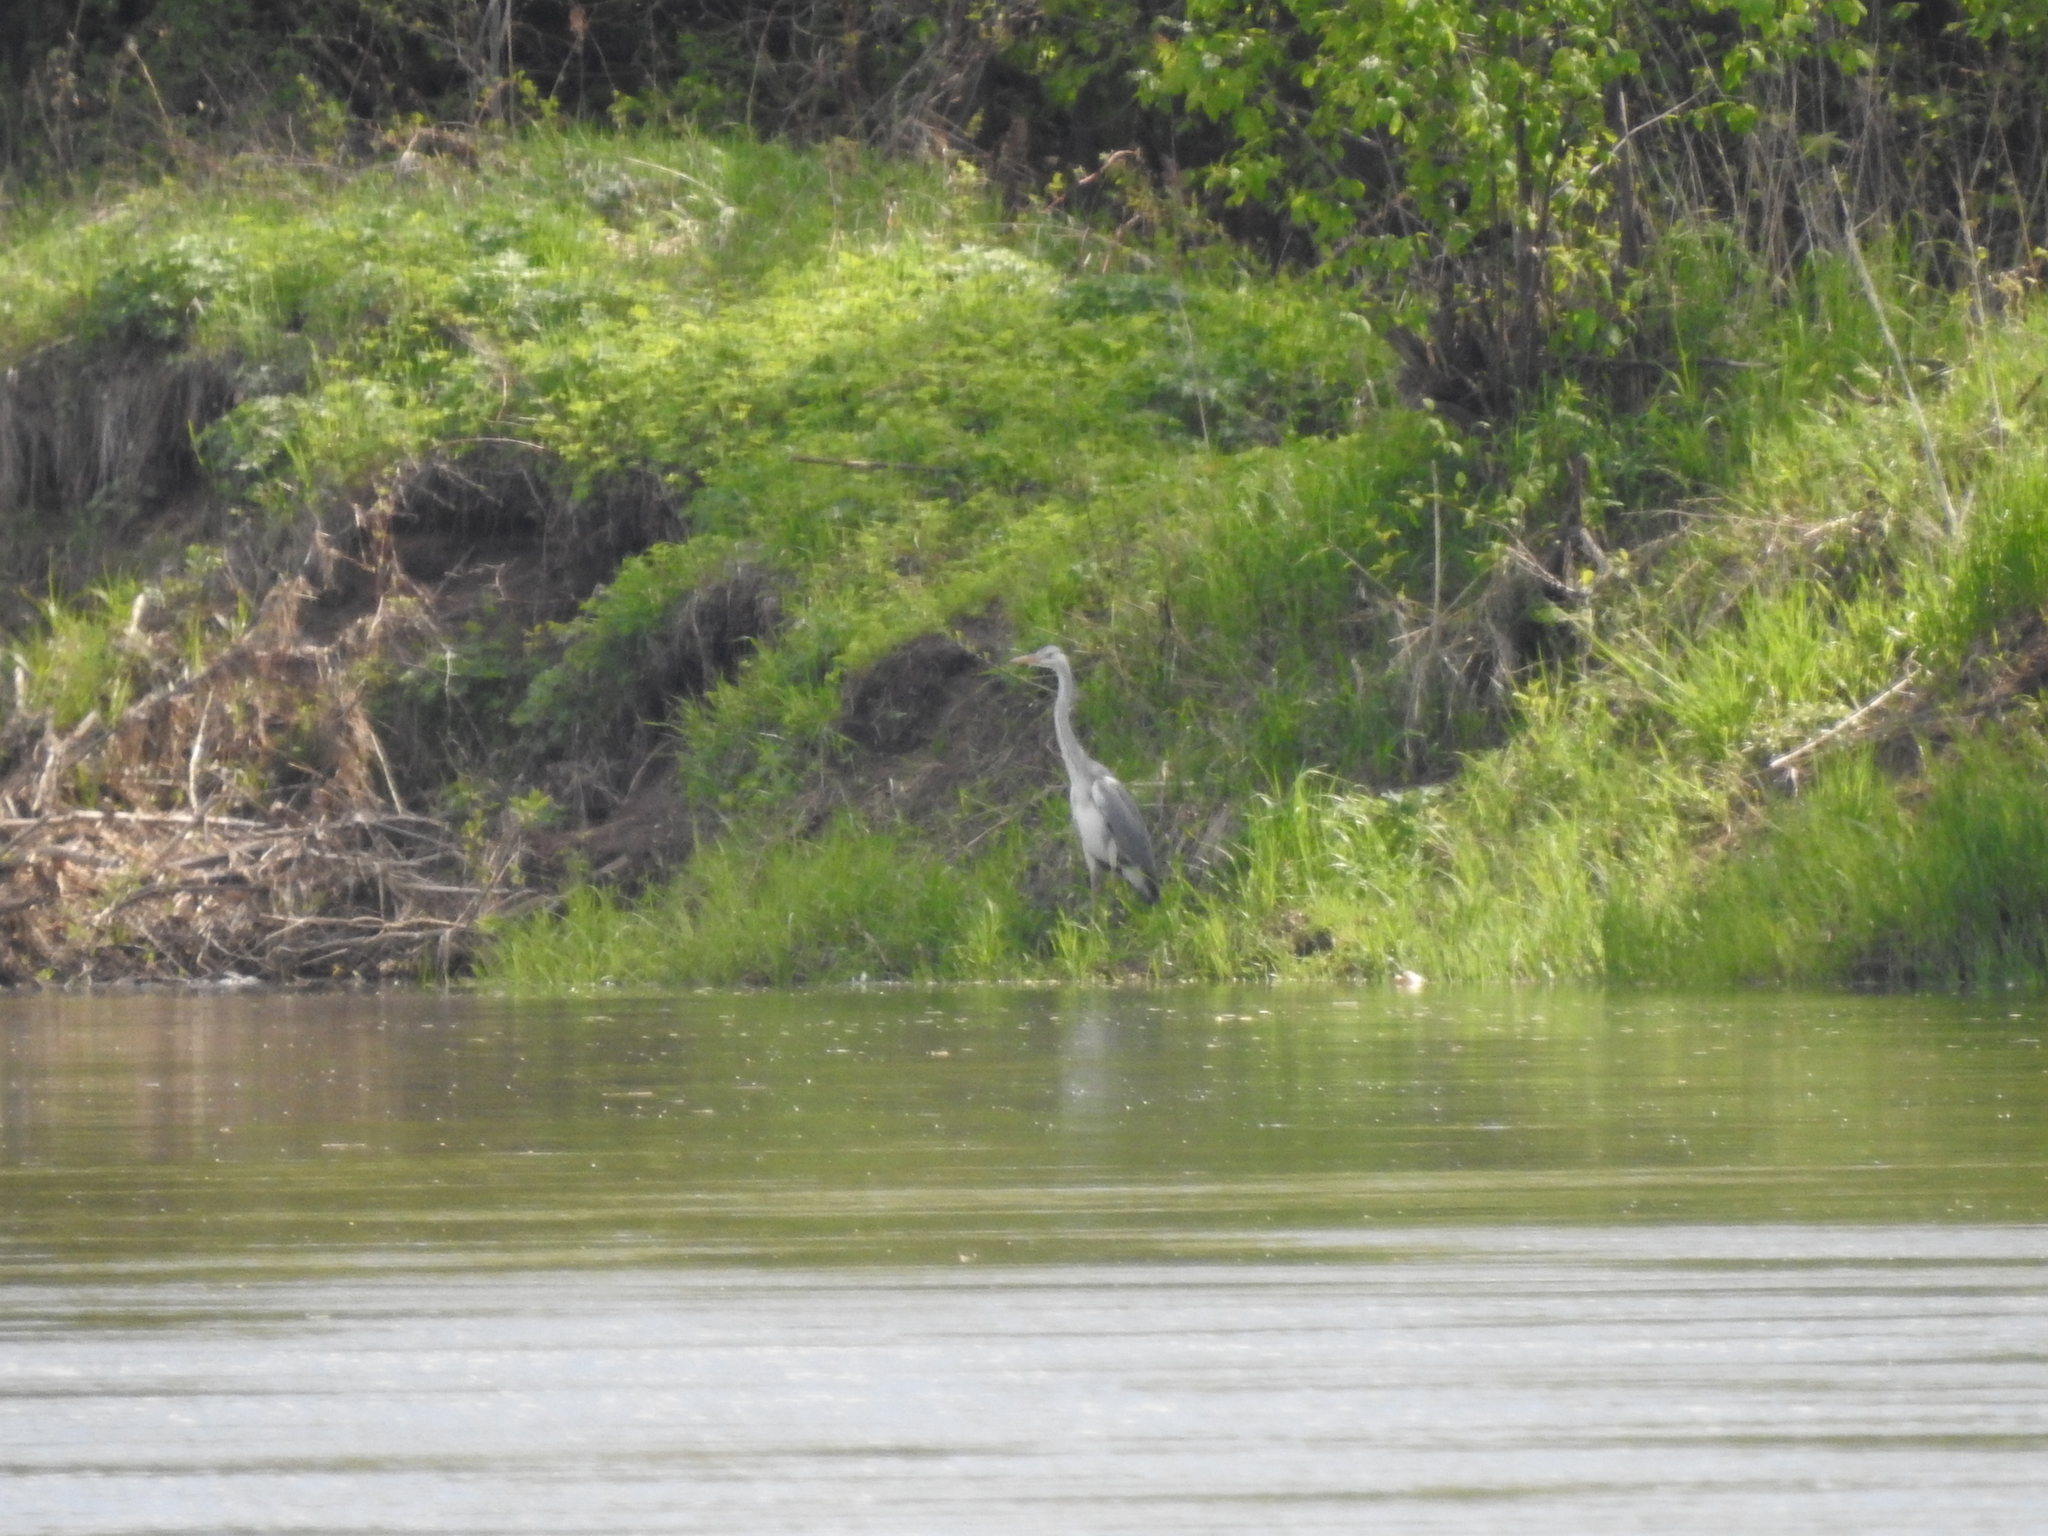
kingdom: Animalia
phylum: Chordata
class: Aves
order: Pelecaniformes
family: Ardeidae
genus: Ardea
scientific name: Ardea cinerea
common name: Grey heron
